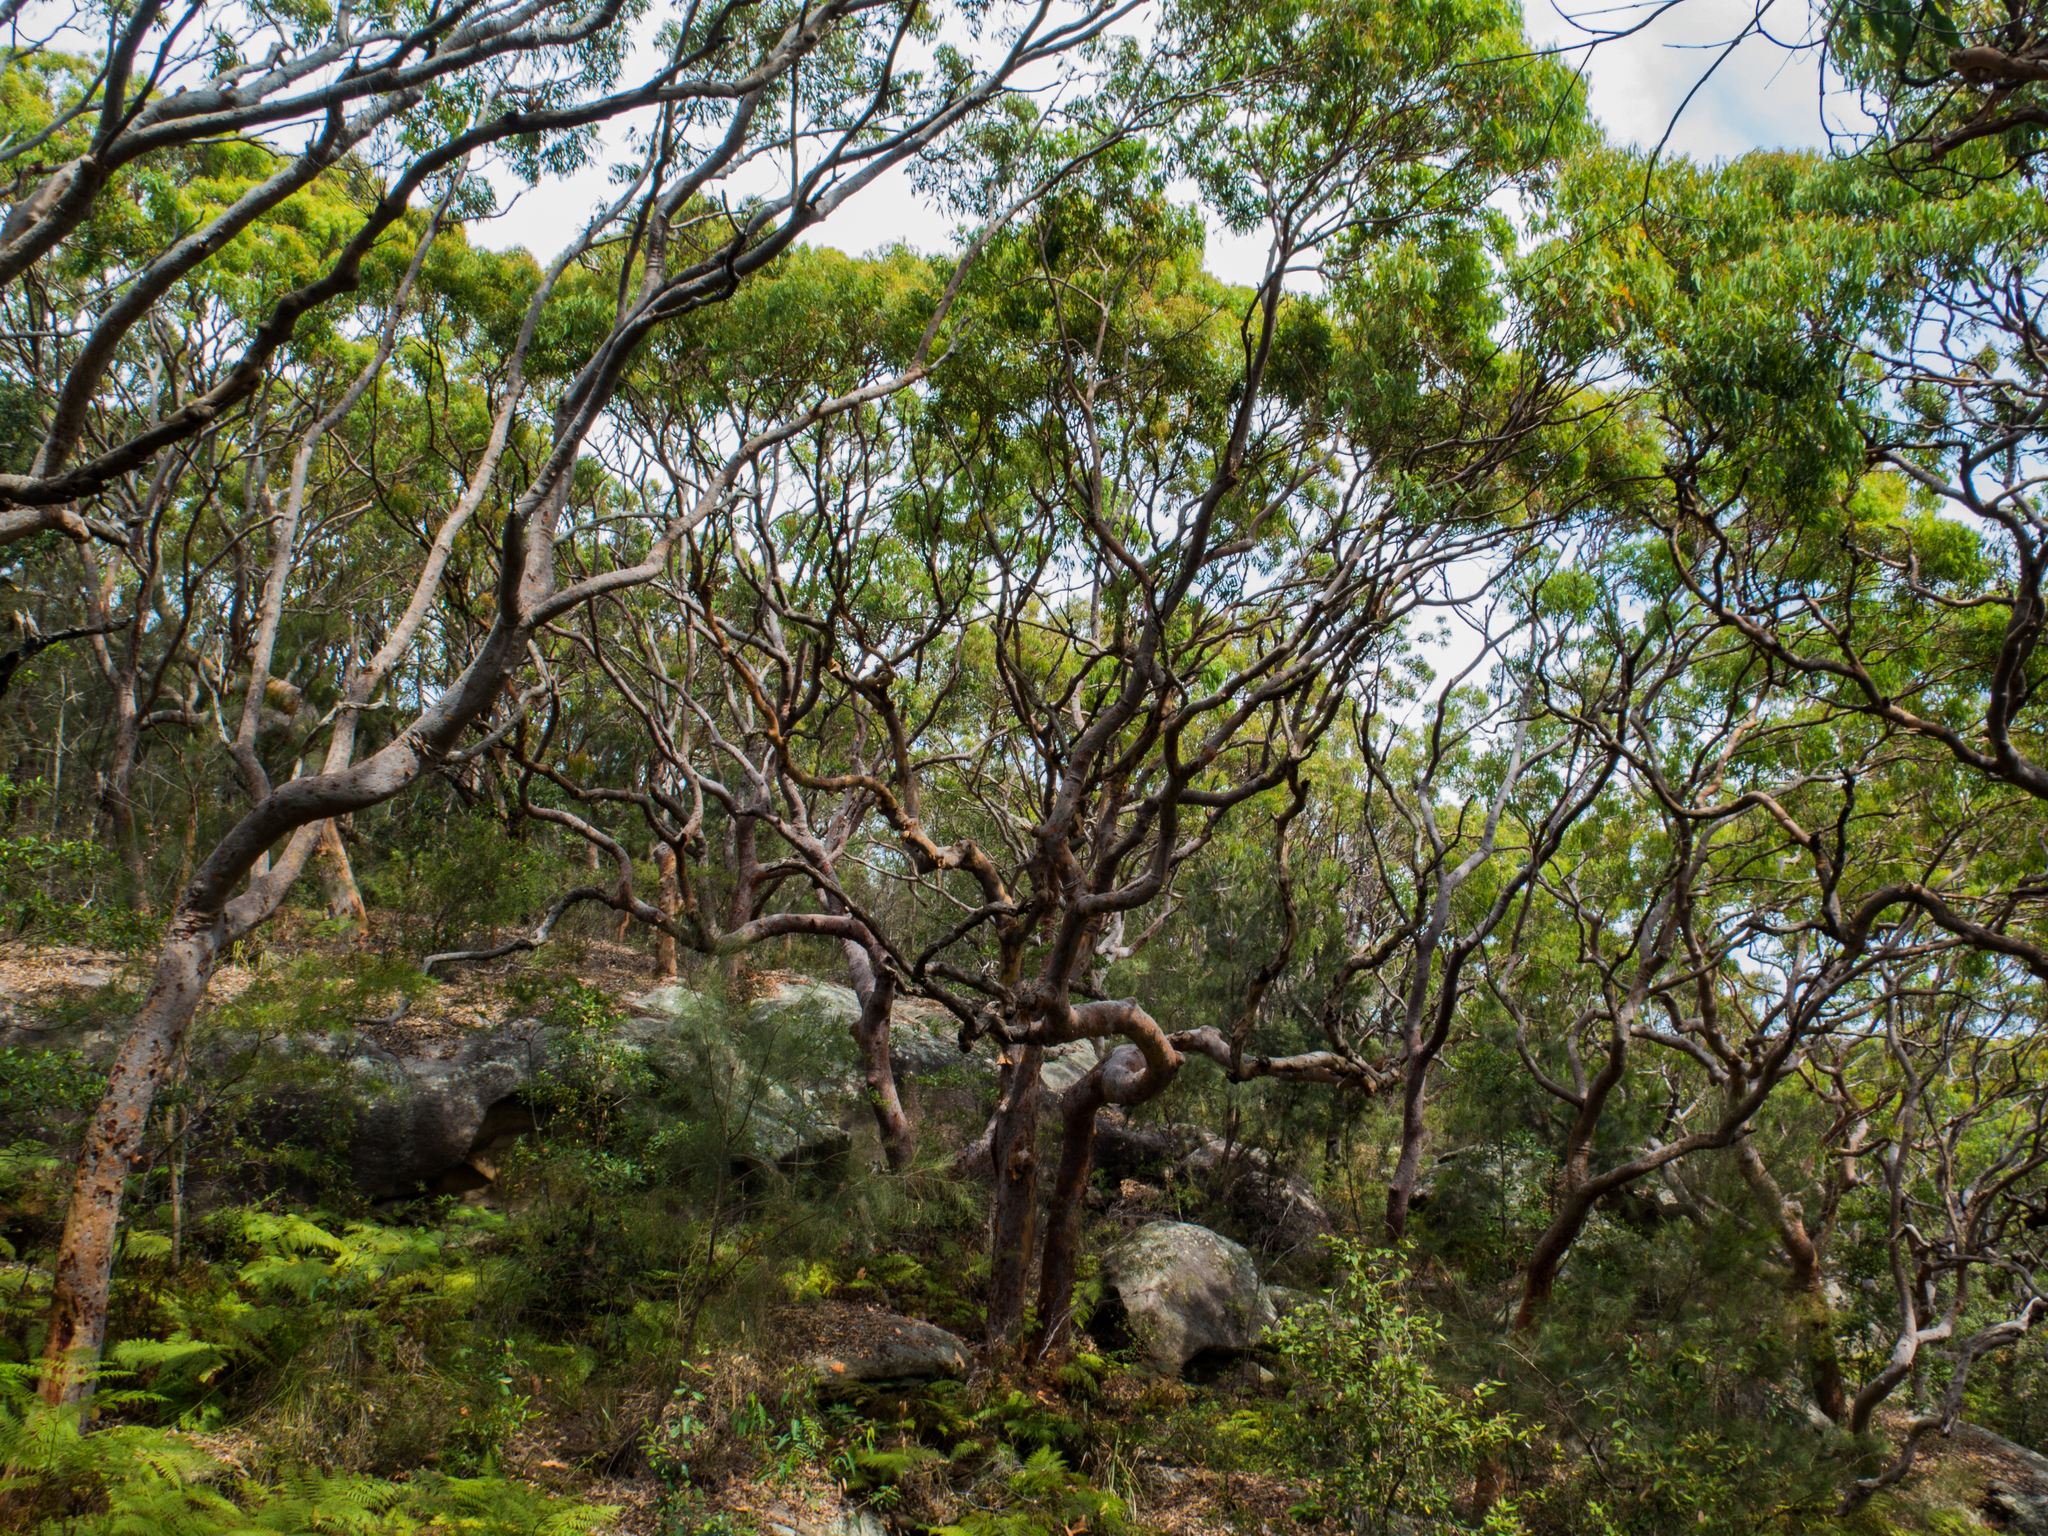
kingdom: Plantae
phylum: Tracheophyta
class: Magnoliopsida
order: Myrtales
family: Myrtaceae
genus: Angophora
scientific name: Angophora costata
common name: Gum myrtle
